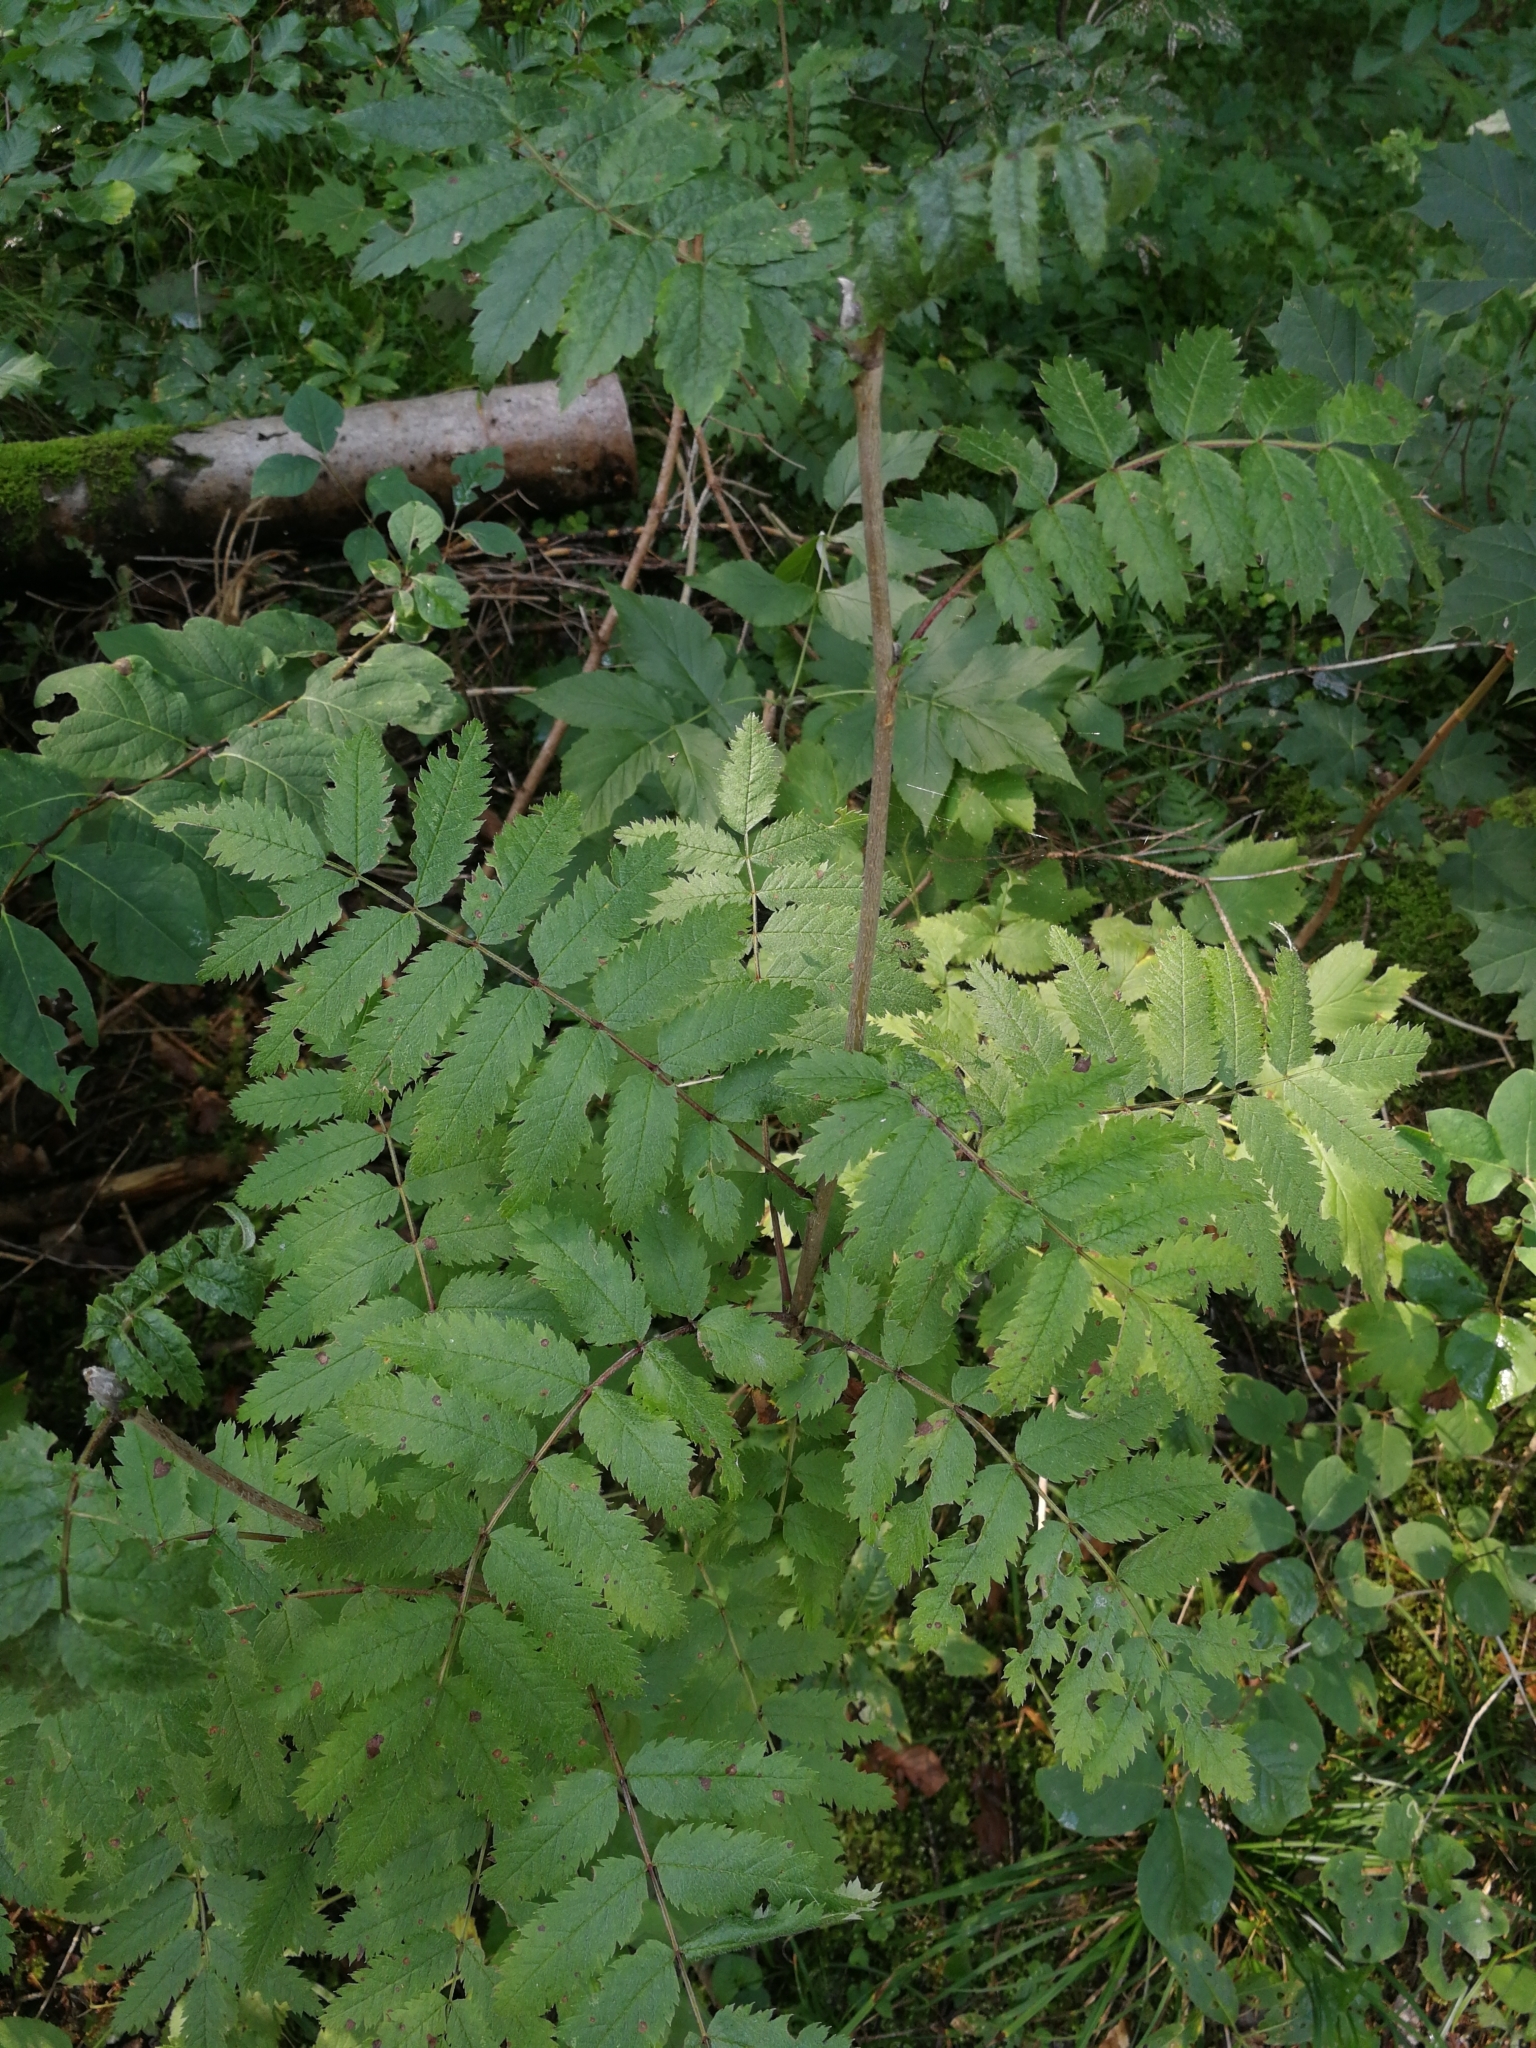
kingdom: Plantae
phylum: Tracheophyta
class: Magnoliopsida
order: Rosales
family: Rosaceae
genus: Sorbus
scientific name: Sorbus aucuparia
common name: Rowan
